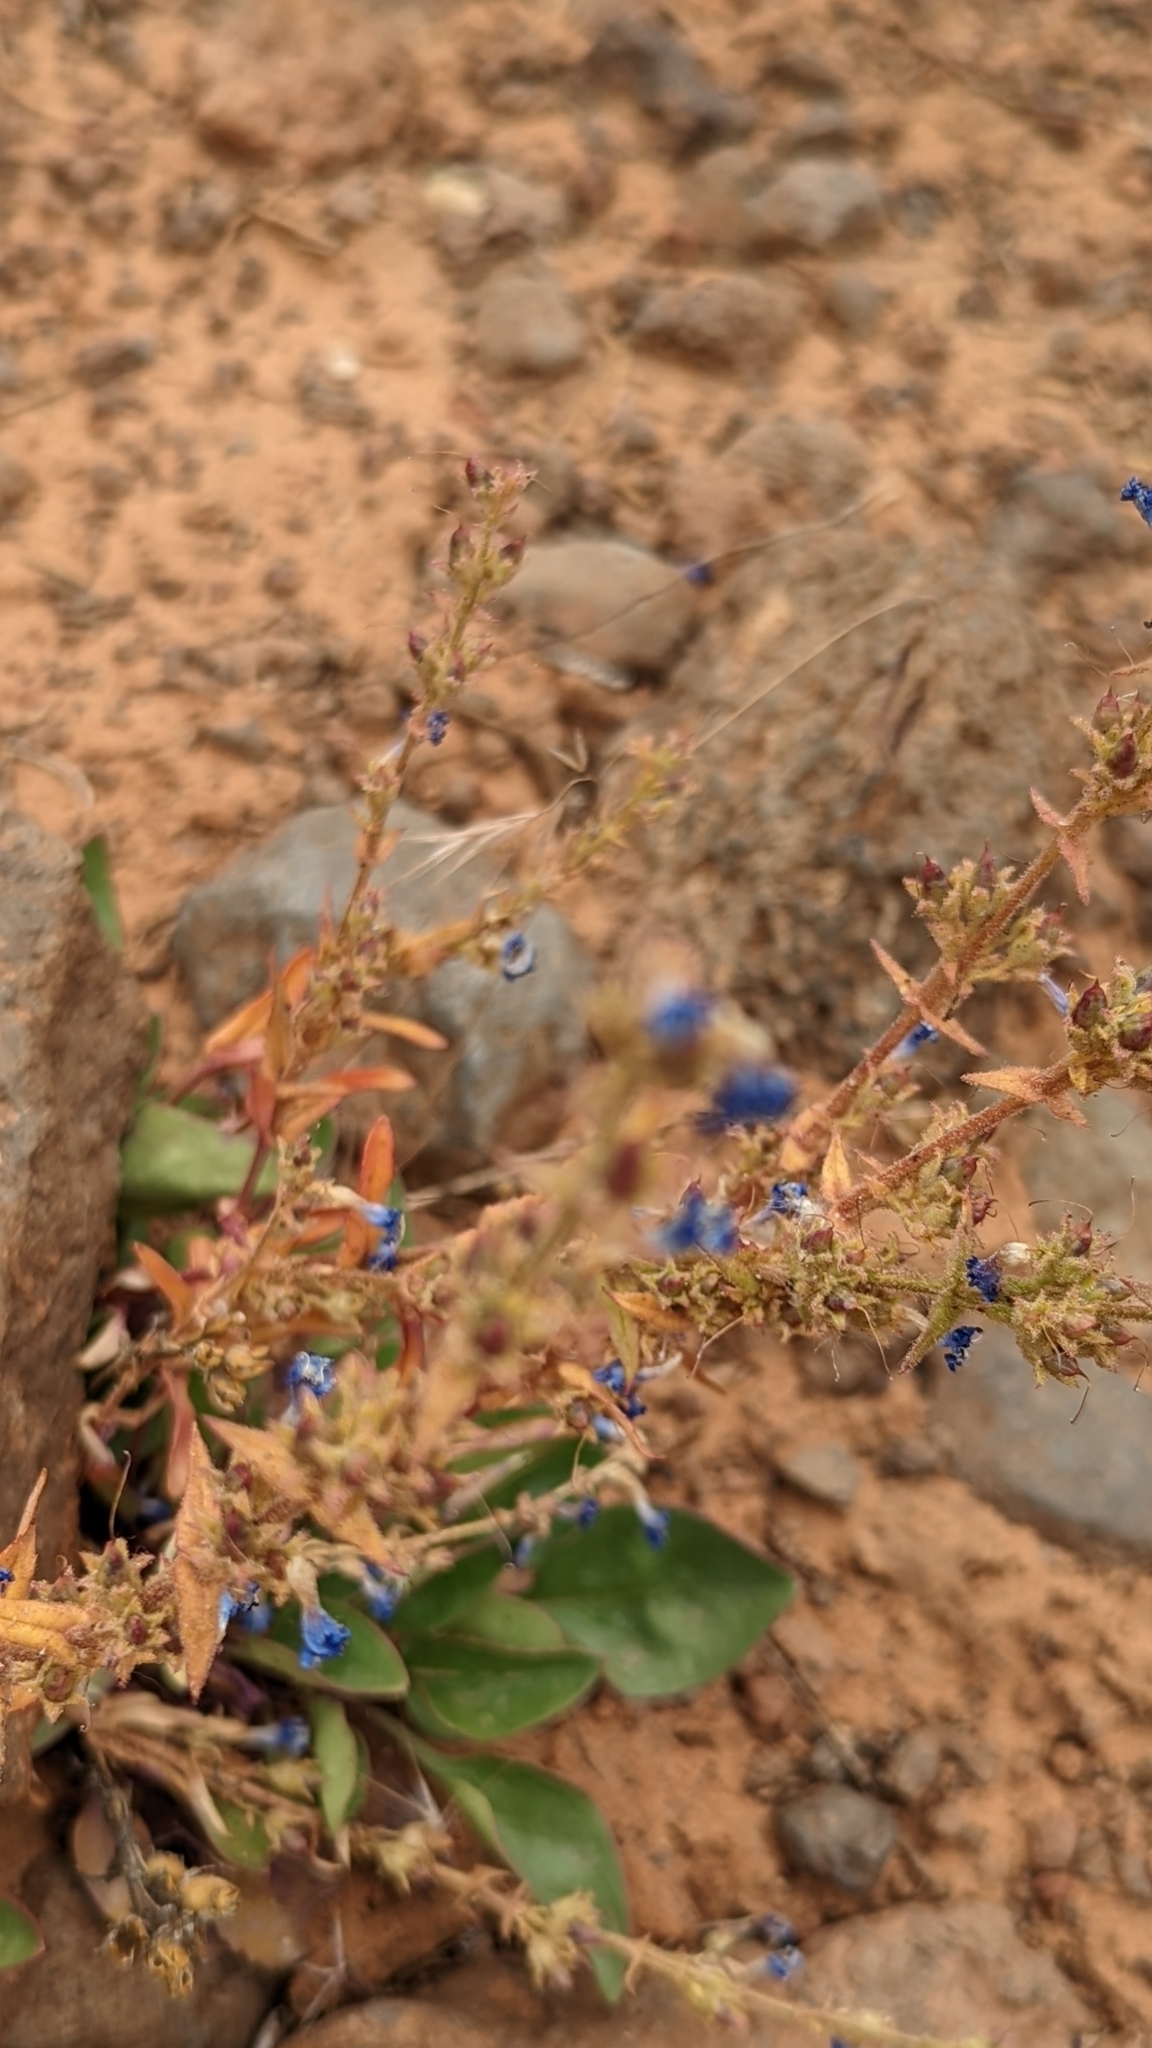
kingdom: Plantae
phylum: Tracheophyta
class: Magnoliopsida
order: Lamiales
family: Plantaginaceae
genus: Penstemon
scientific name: Penstemon humilis
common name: Low penstemon
